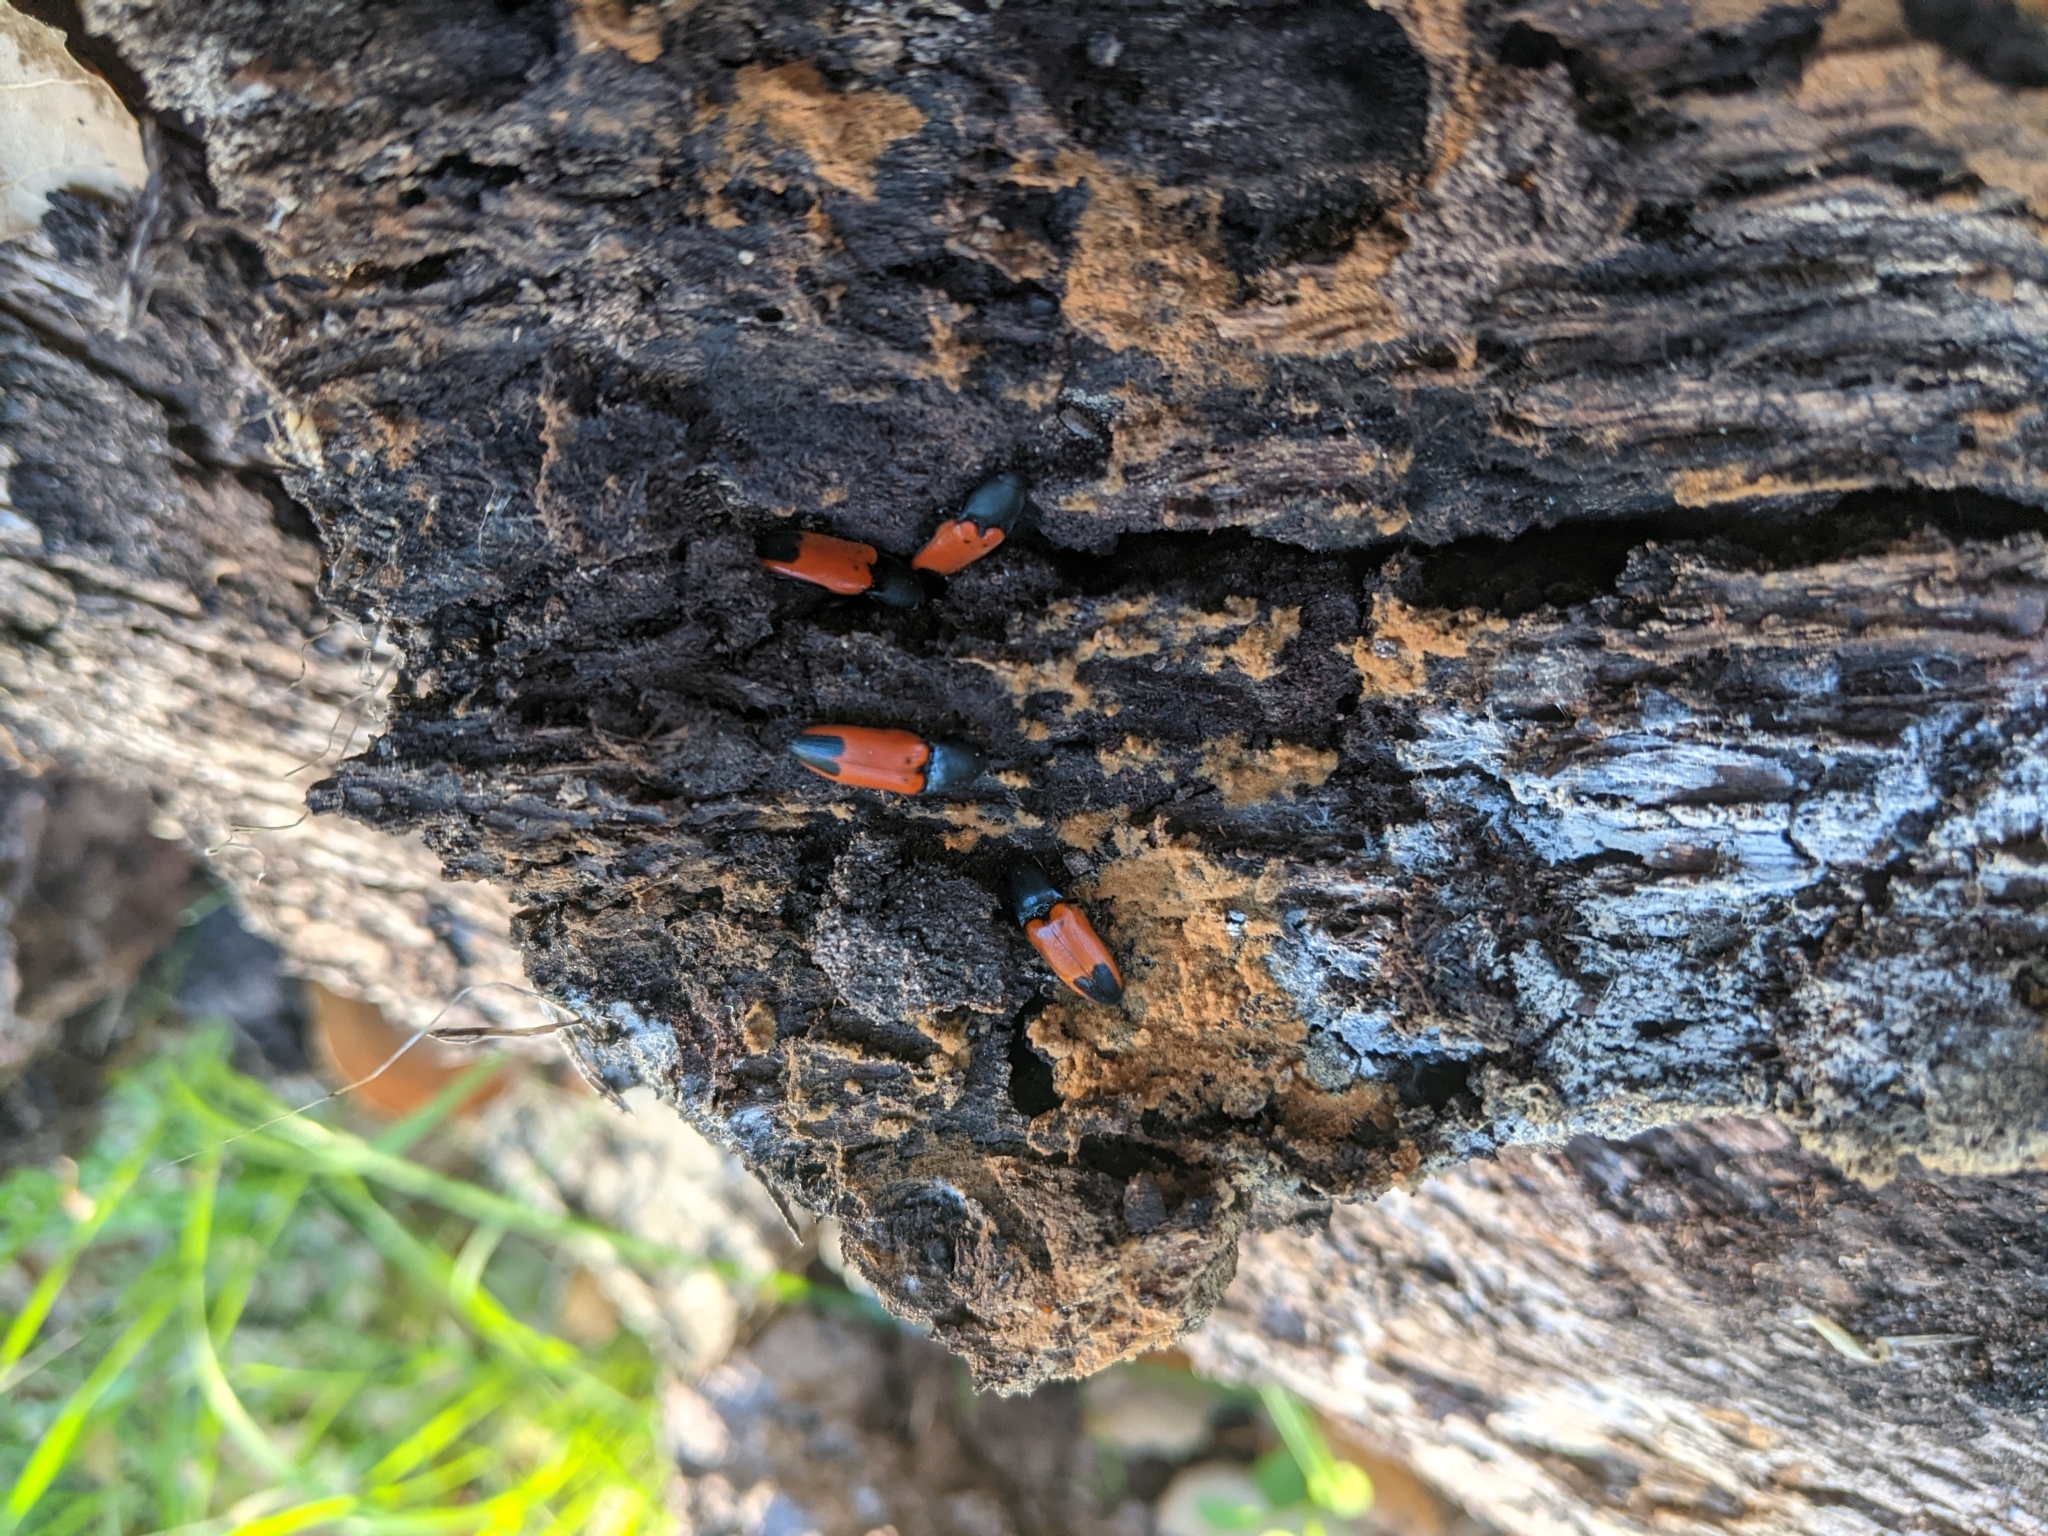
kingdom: Animalia
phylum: Arthropoda
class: Insecta
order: Coleoptera
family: Elateridae
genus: Ampedus
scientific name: Ampedus
